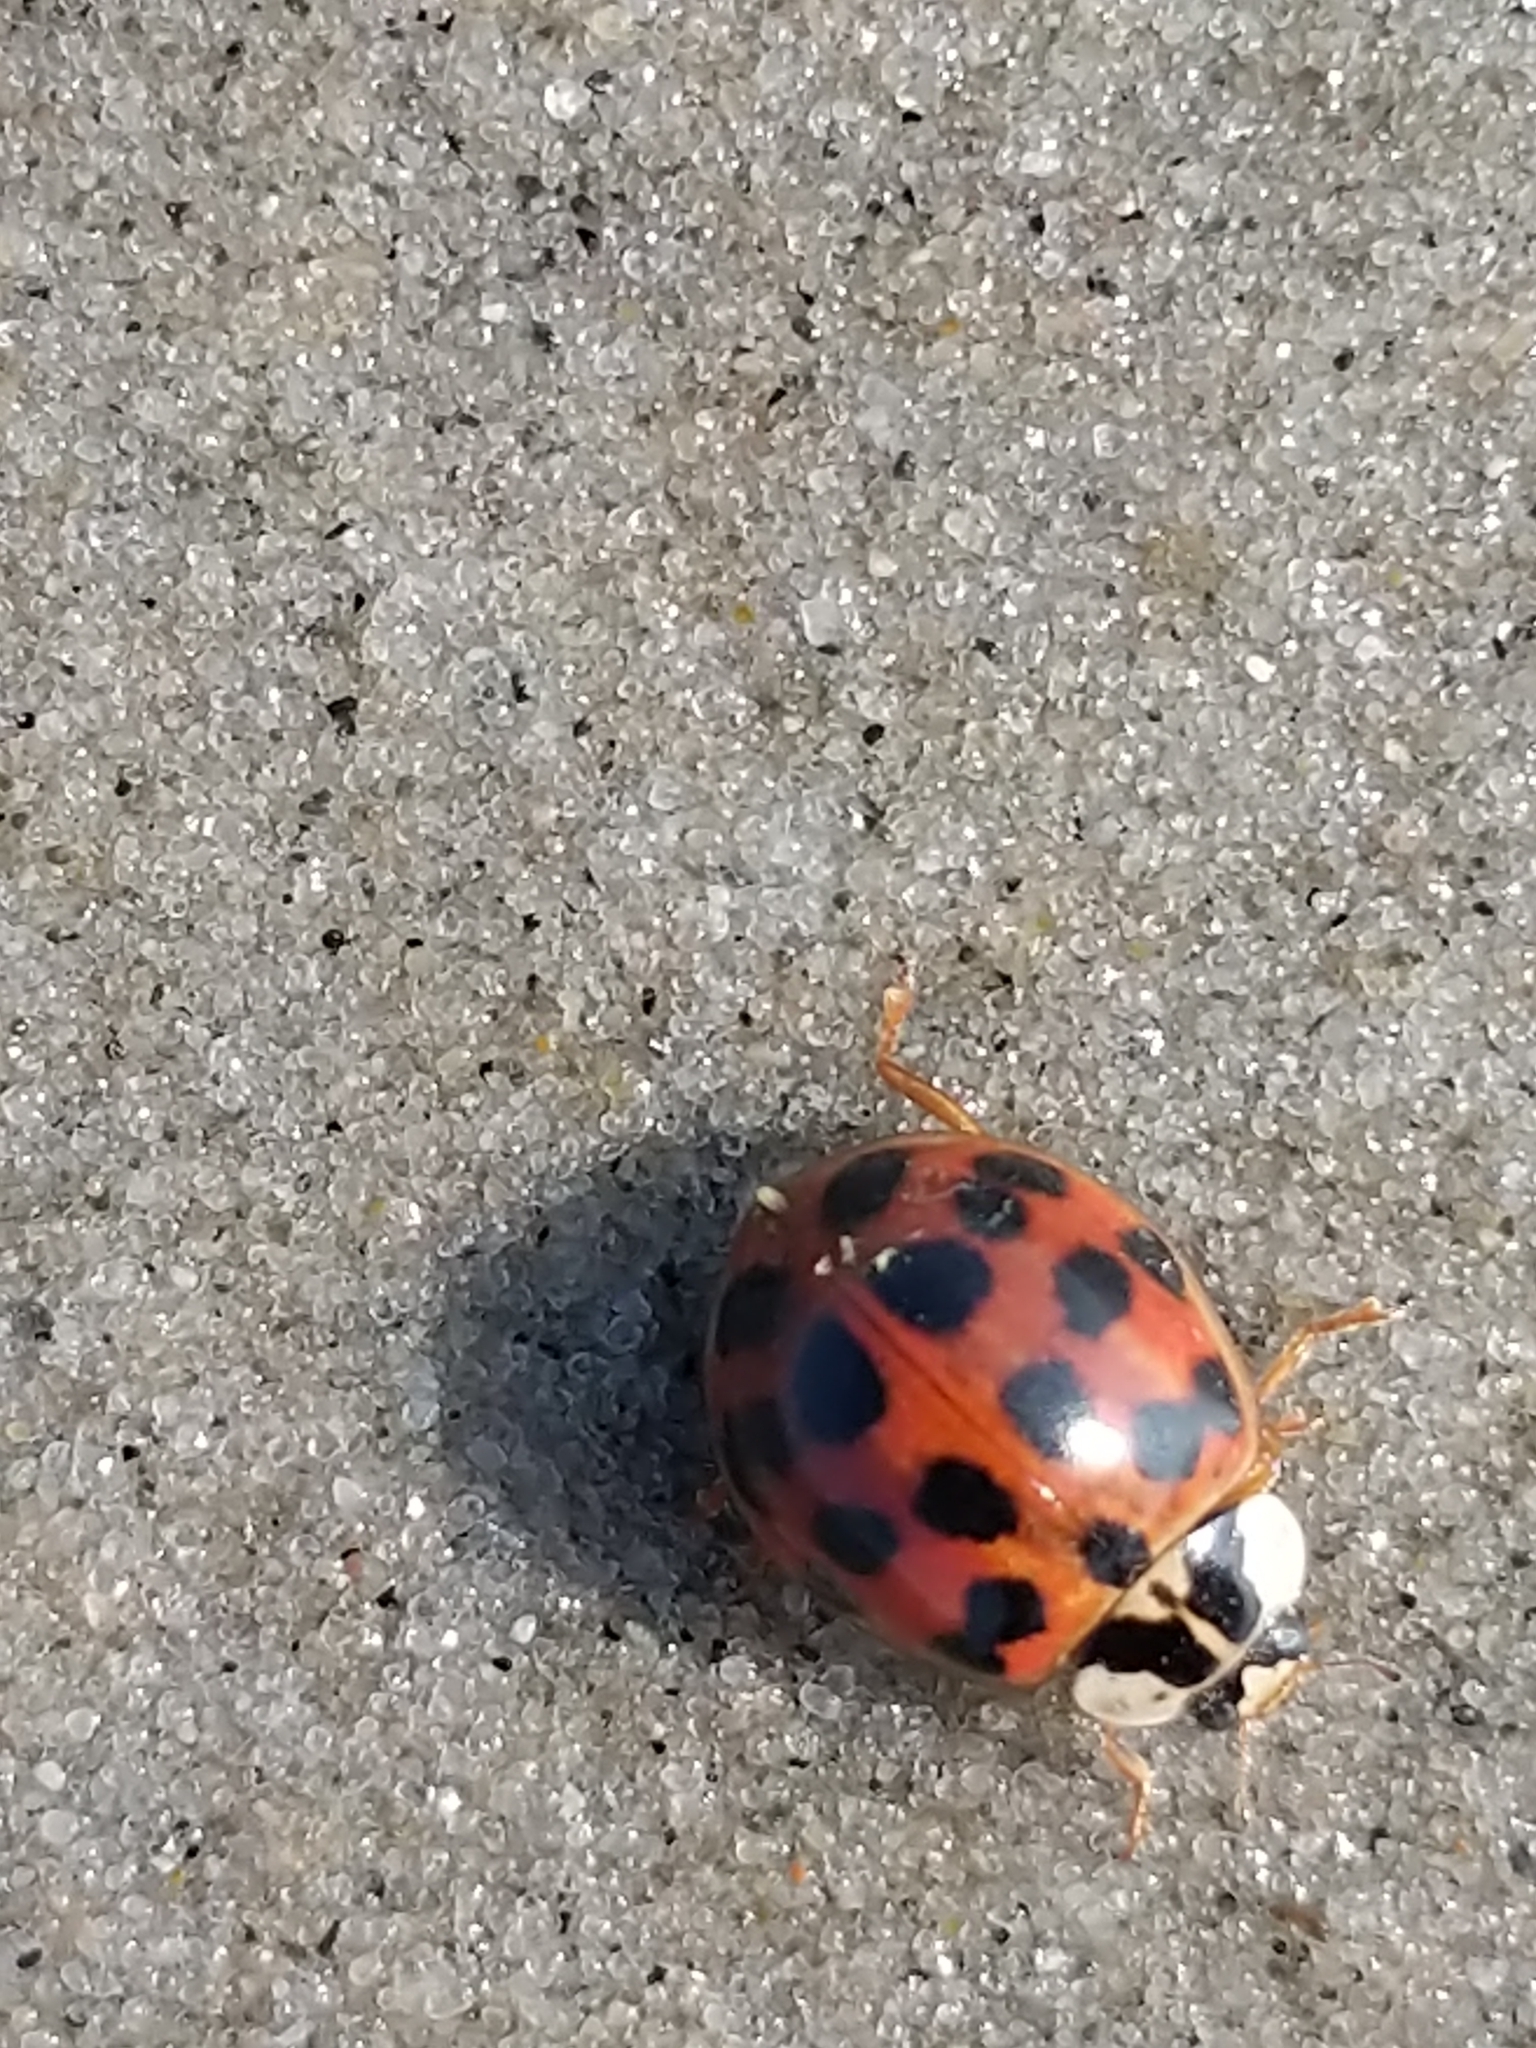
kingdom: Animalia
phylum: Arthropoda
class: Insecta
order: Coleoptera
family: Coccinellidae
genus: Harmonia
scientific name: Harmonia axyridis
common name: Harlequin ladybird
